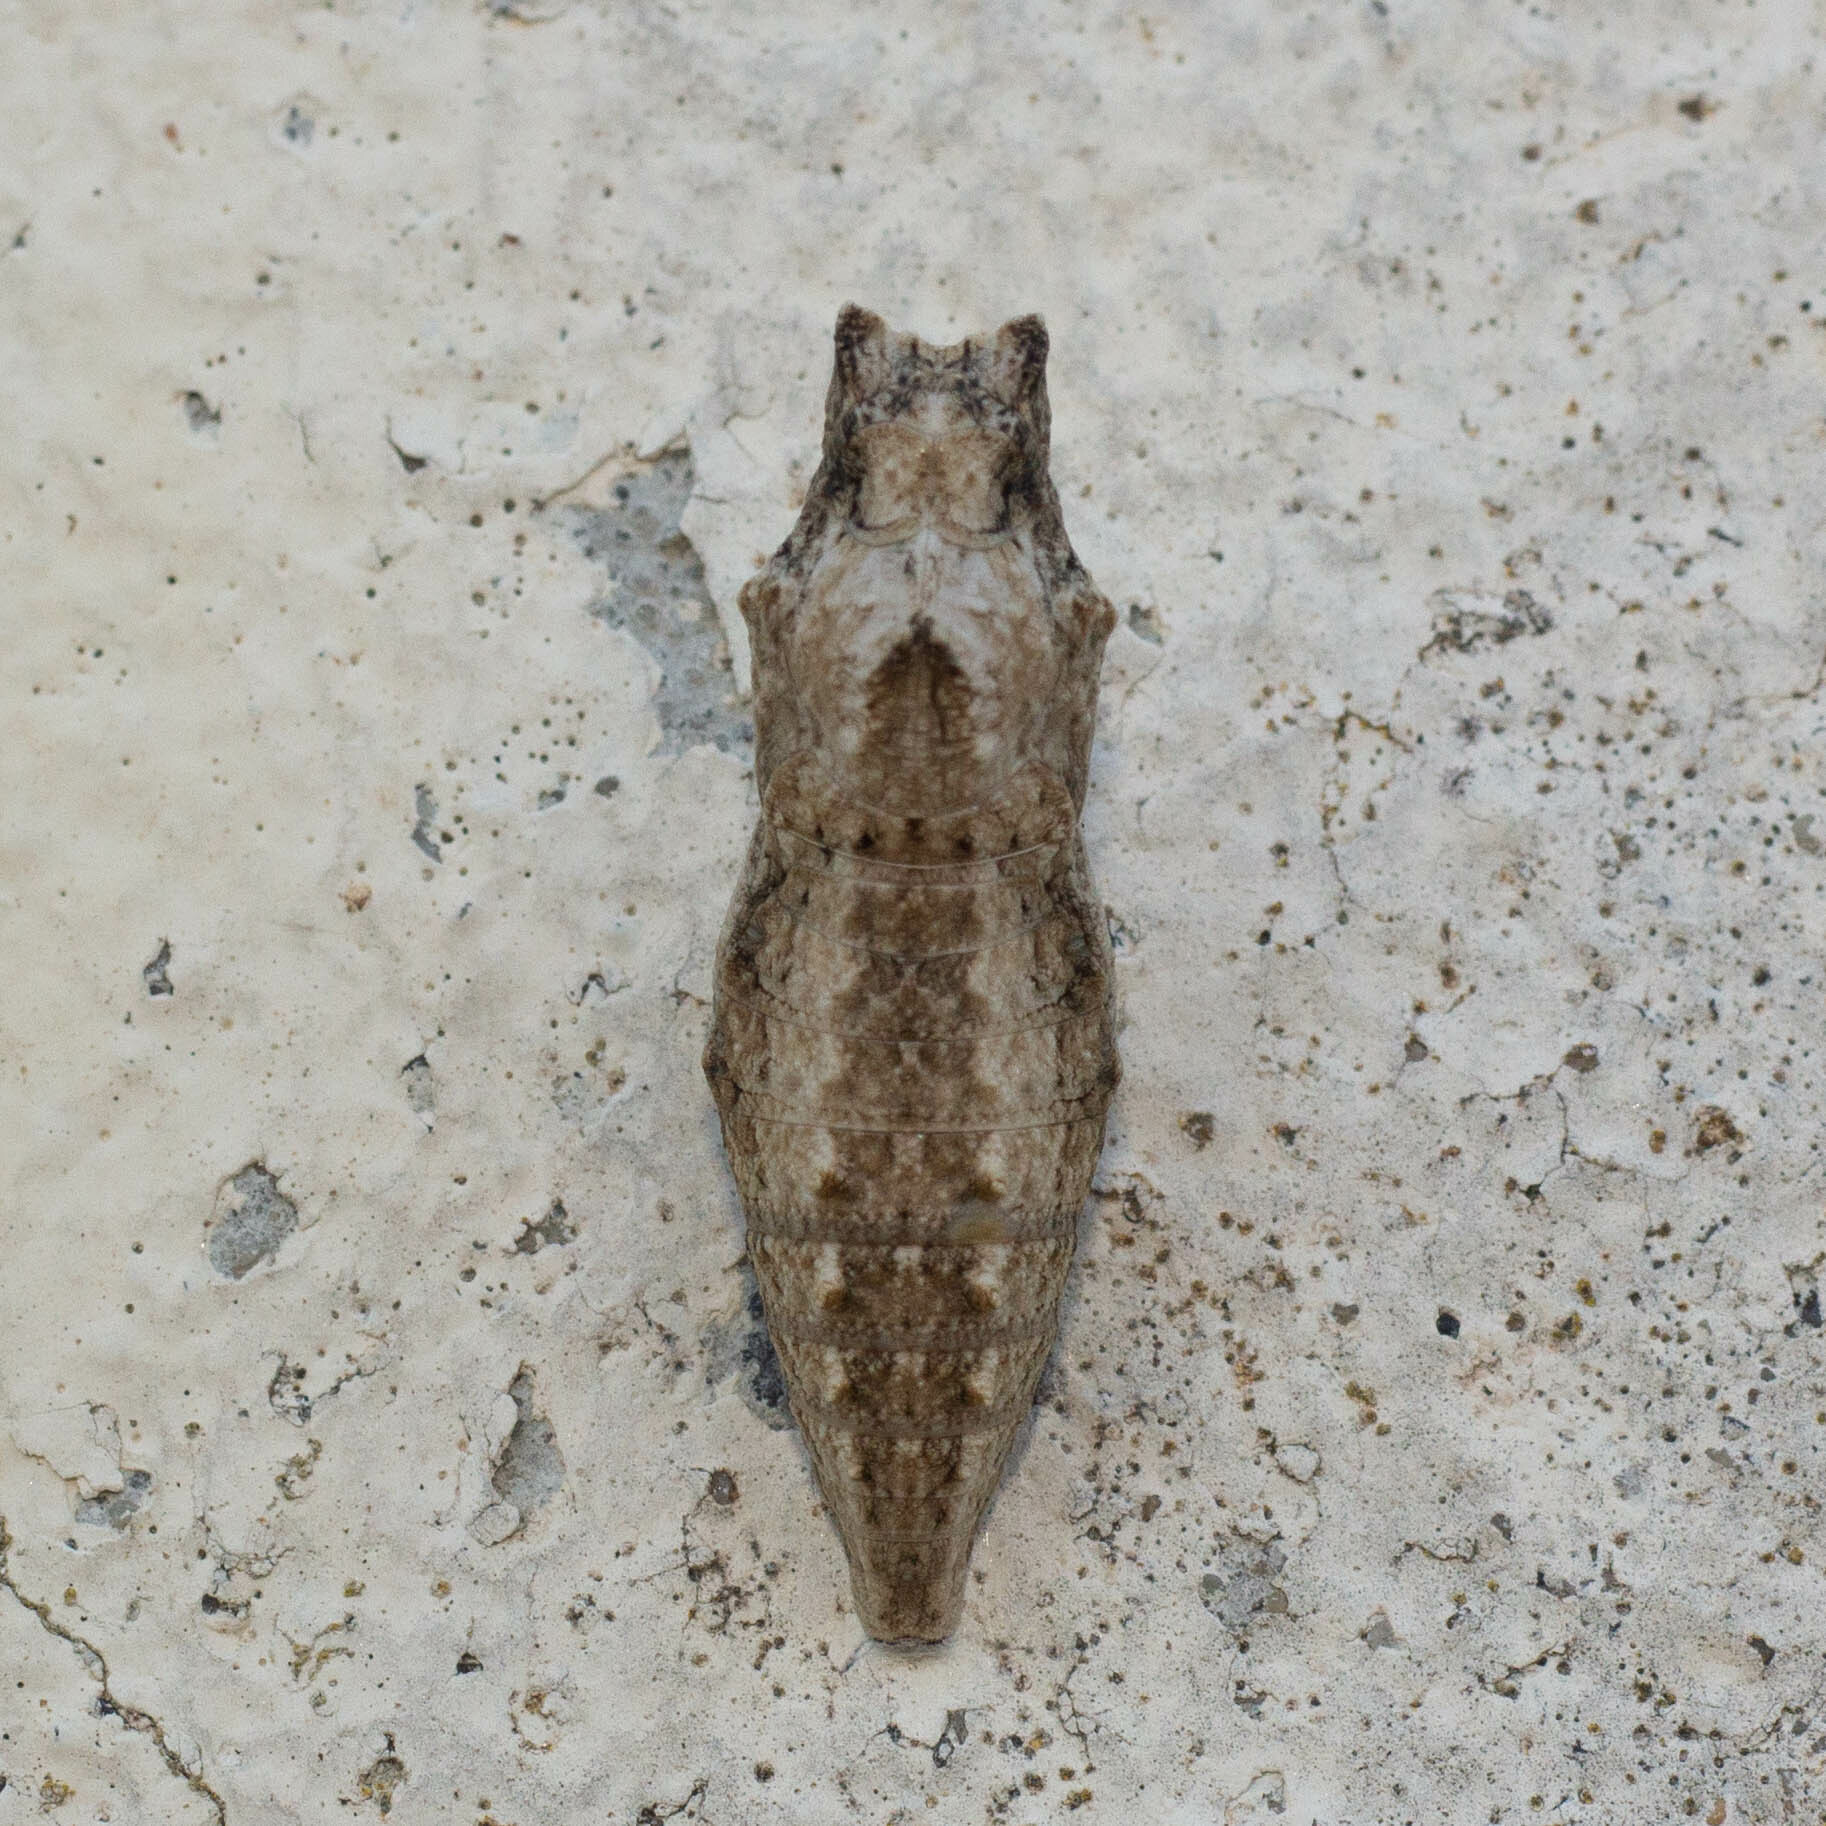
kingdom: Animalia
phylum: Arthropoda
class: Insecta
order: Lepidoptera
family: Papilionidae
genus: Papilio
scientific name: Papilio machaon
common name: Swallowtail
